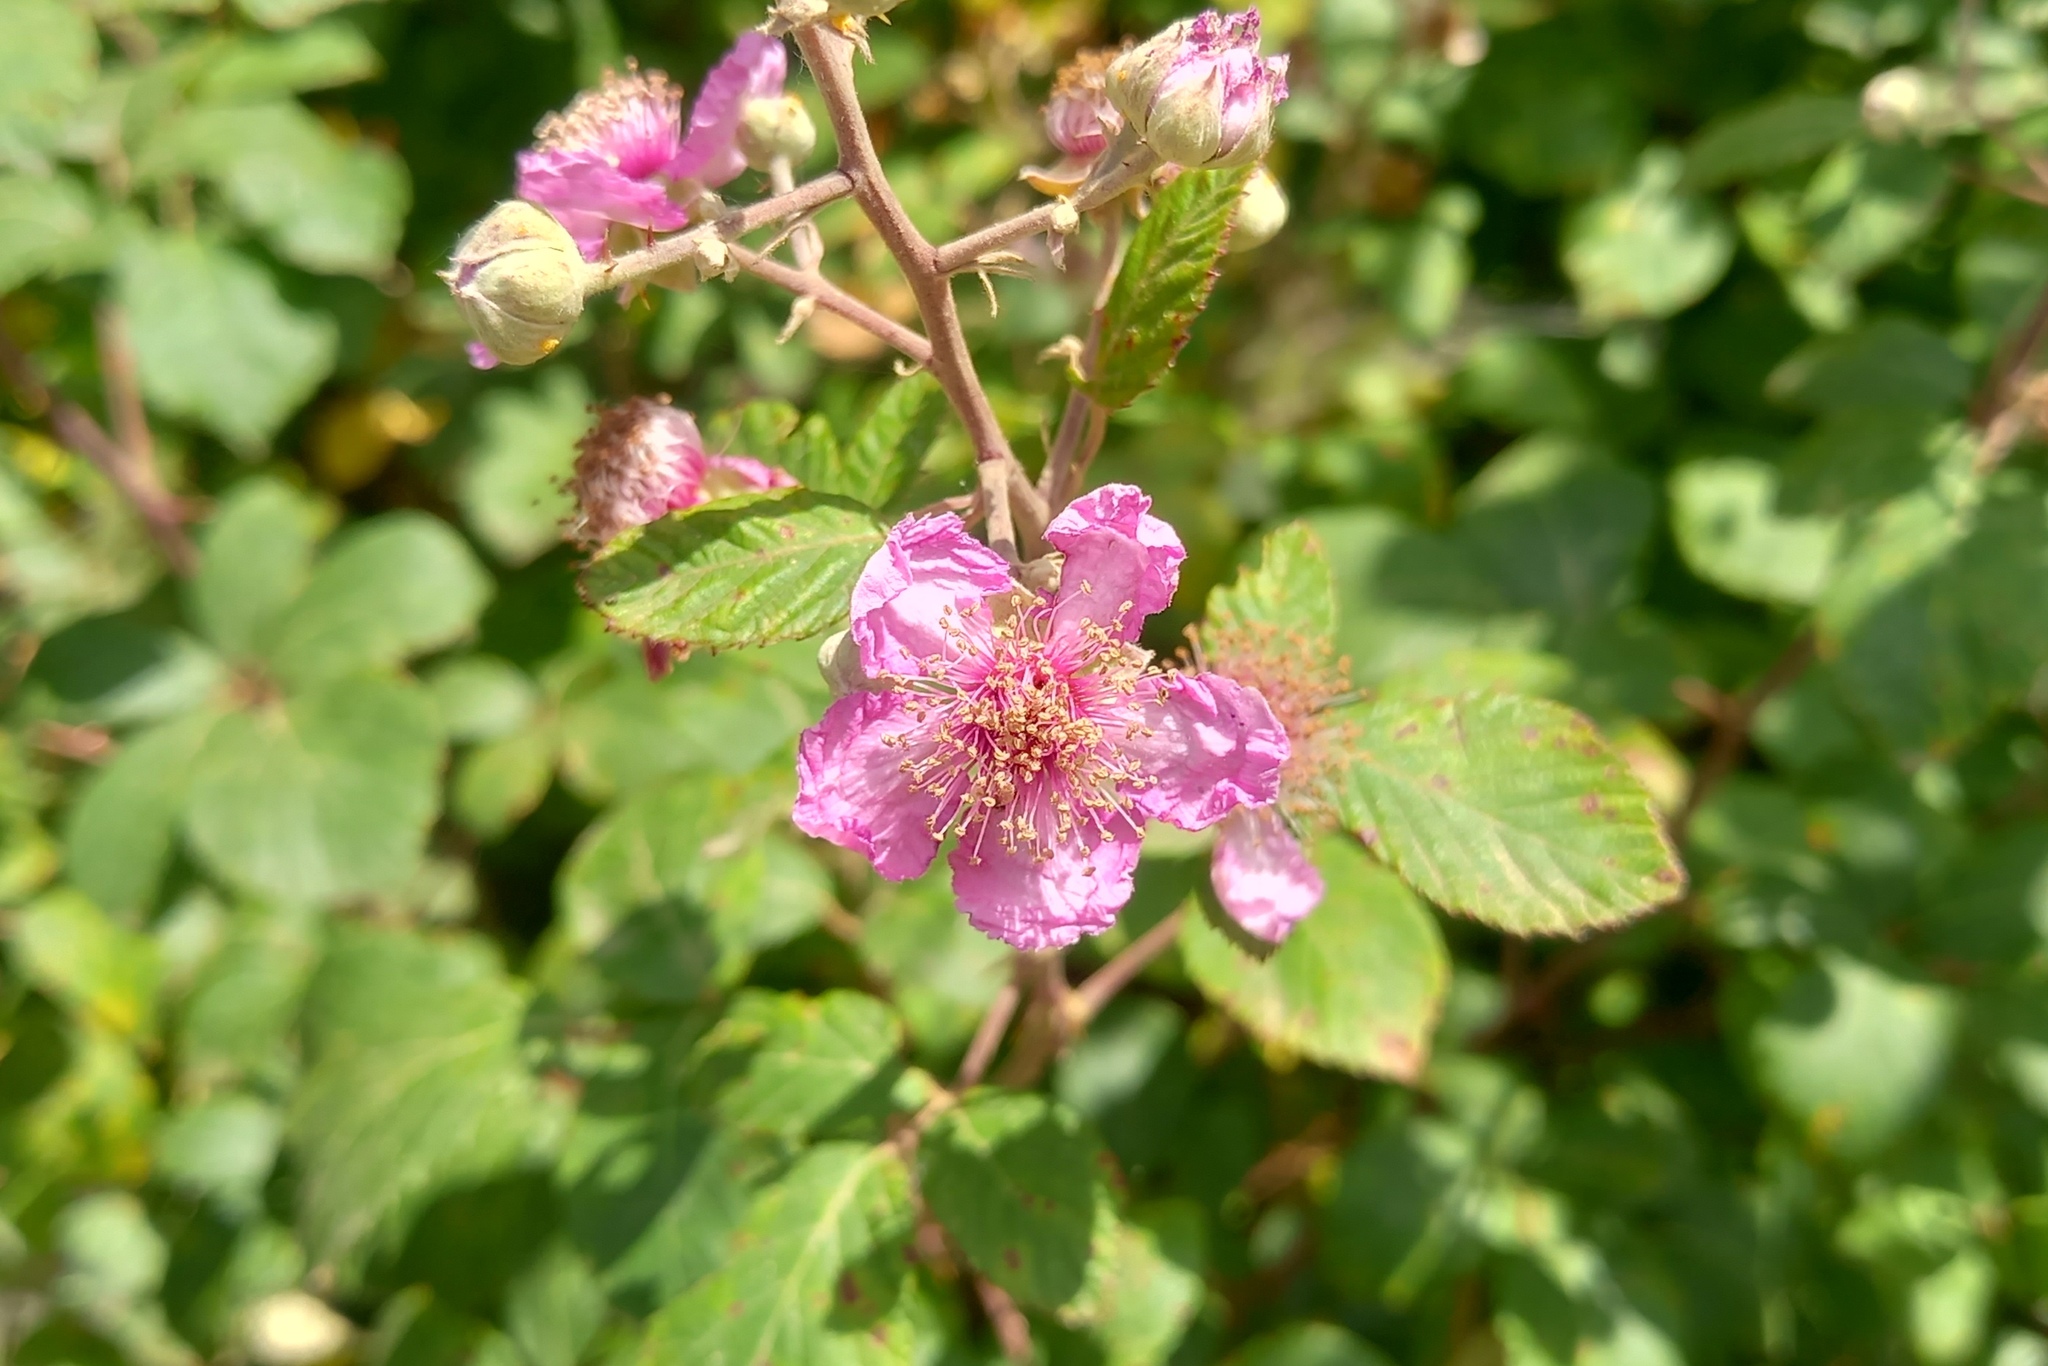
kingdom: Plantae
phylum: Tracheophyta
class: Magnoliopsida
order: Rosales
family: Rosaceae
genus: Rubus
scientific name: Rubus ulmifolius
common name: Elmleaf blackberry
